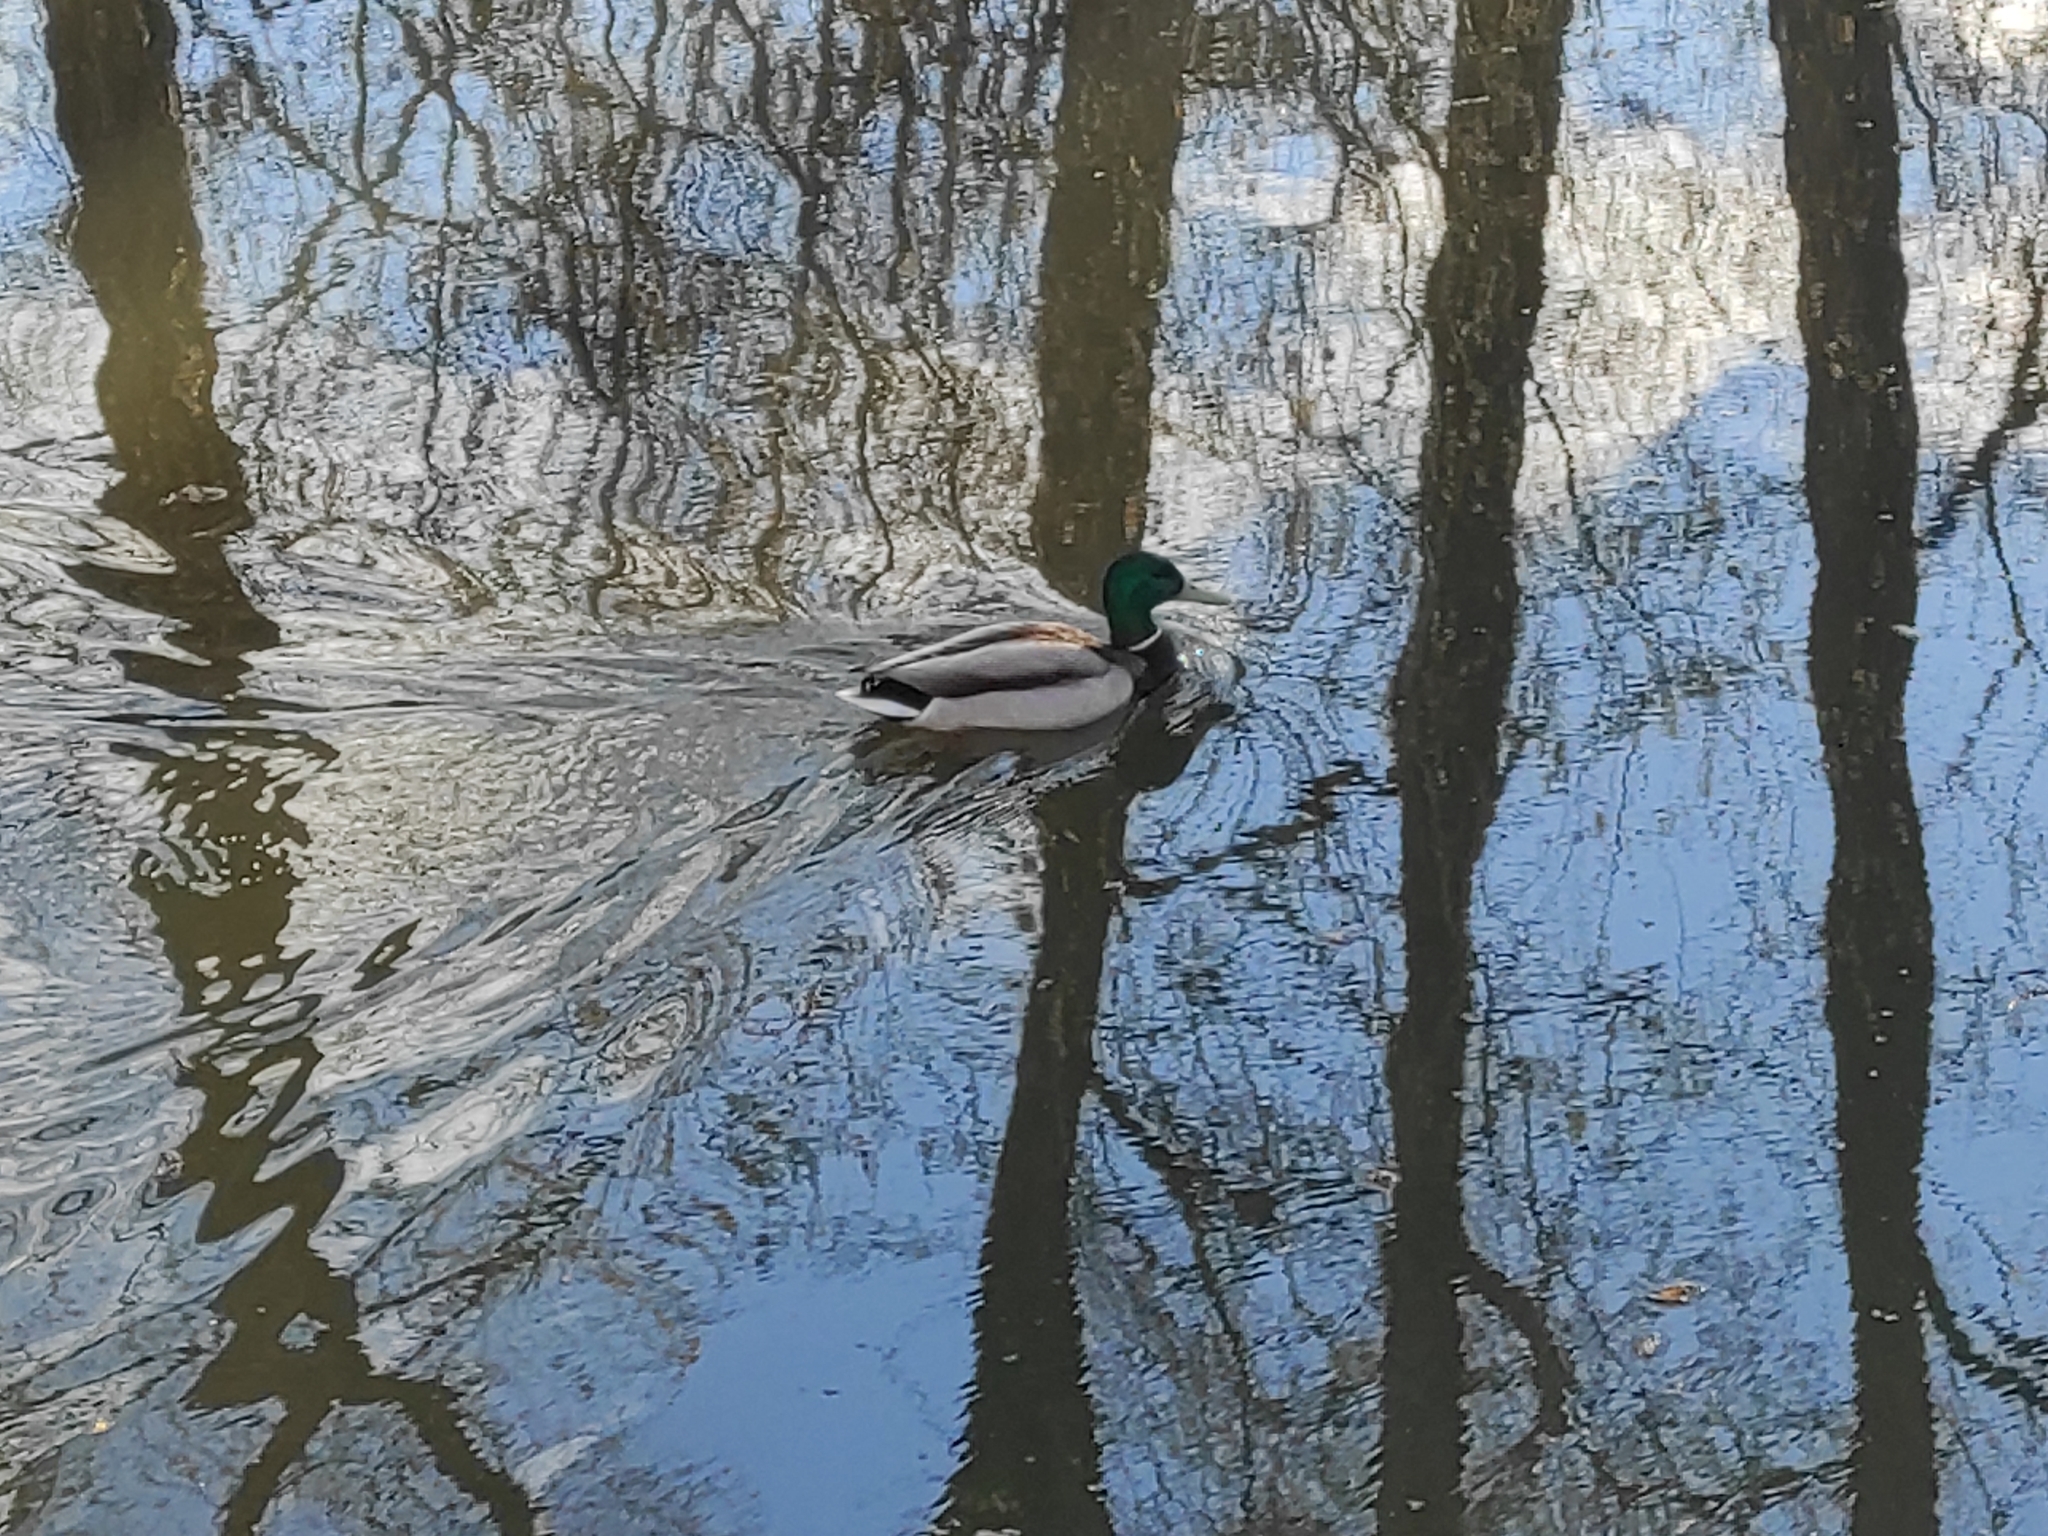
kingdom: Animalia
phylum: Chordata
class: Aves
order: Anseriformes
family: Anatidae
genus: Anas
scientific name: Anas platyrhynchos
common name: Mallard
